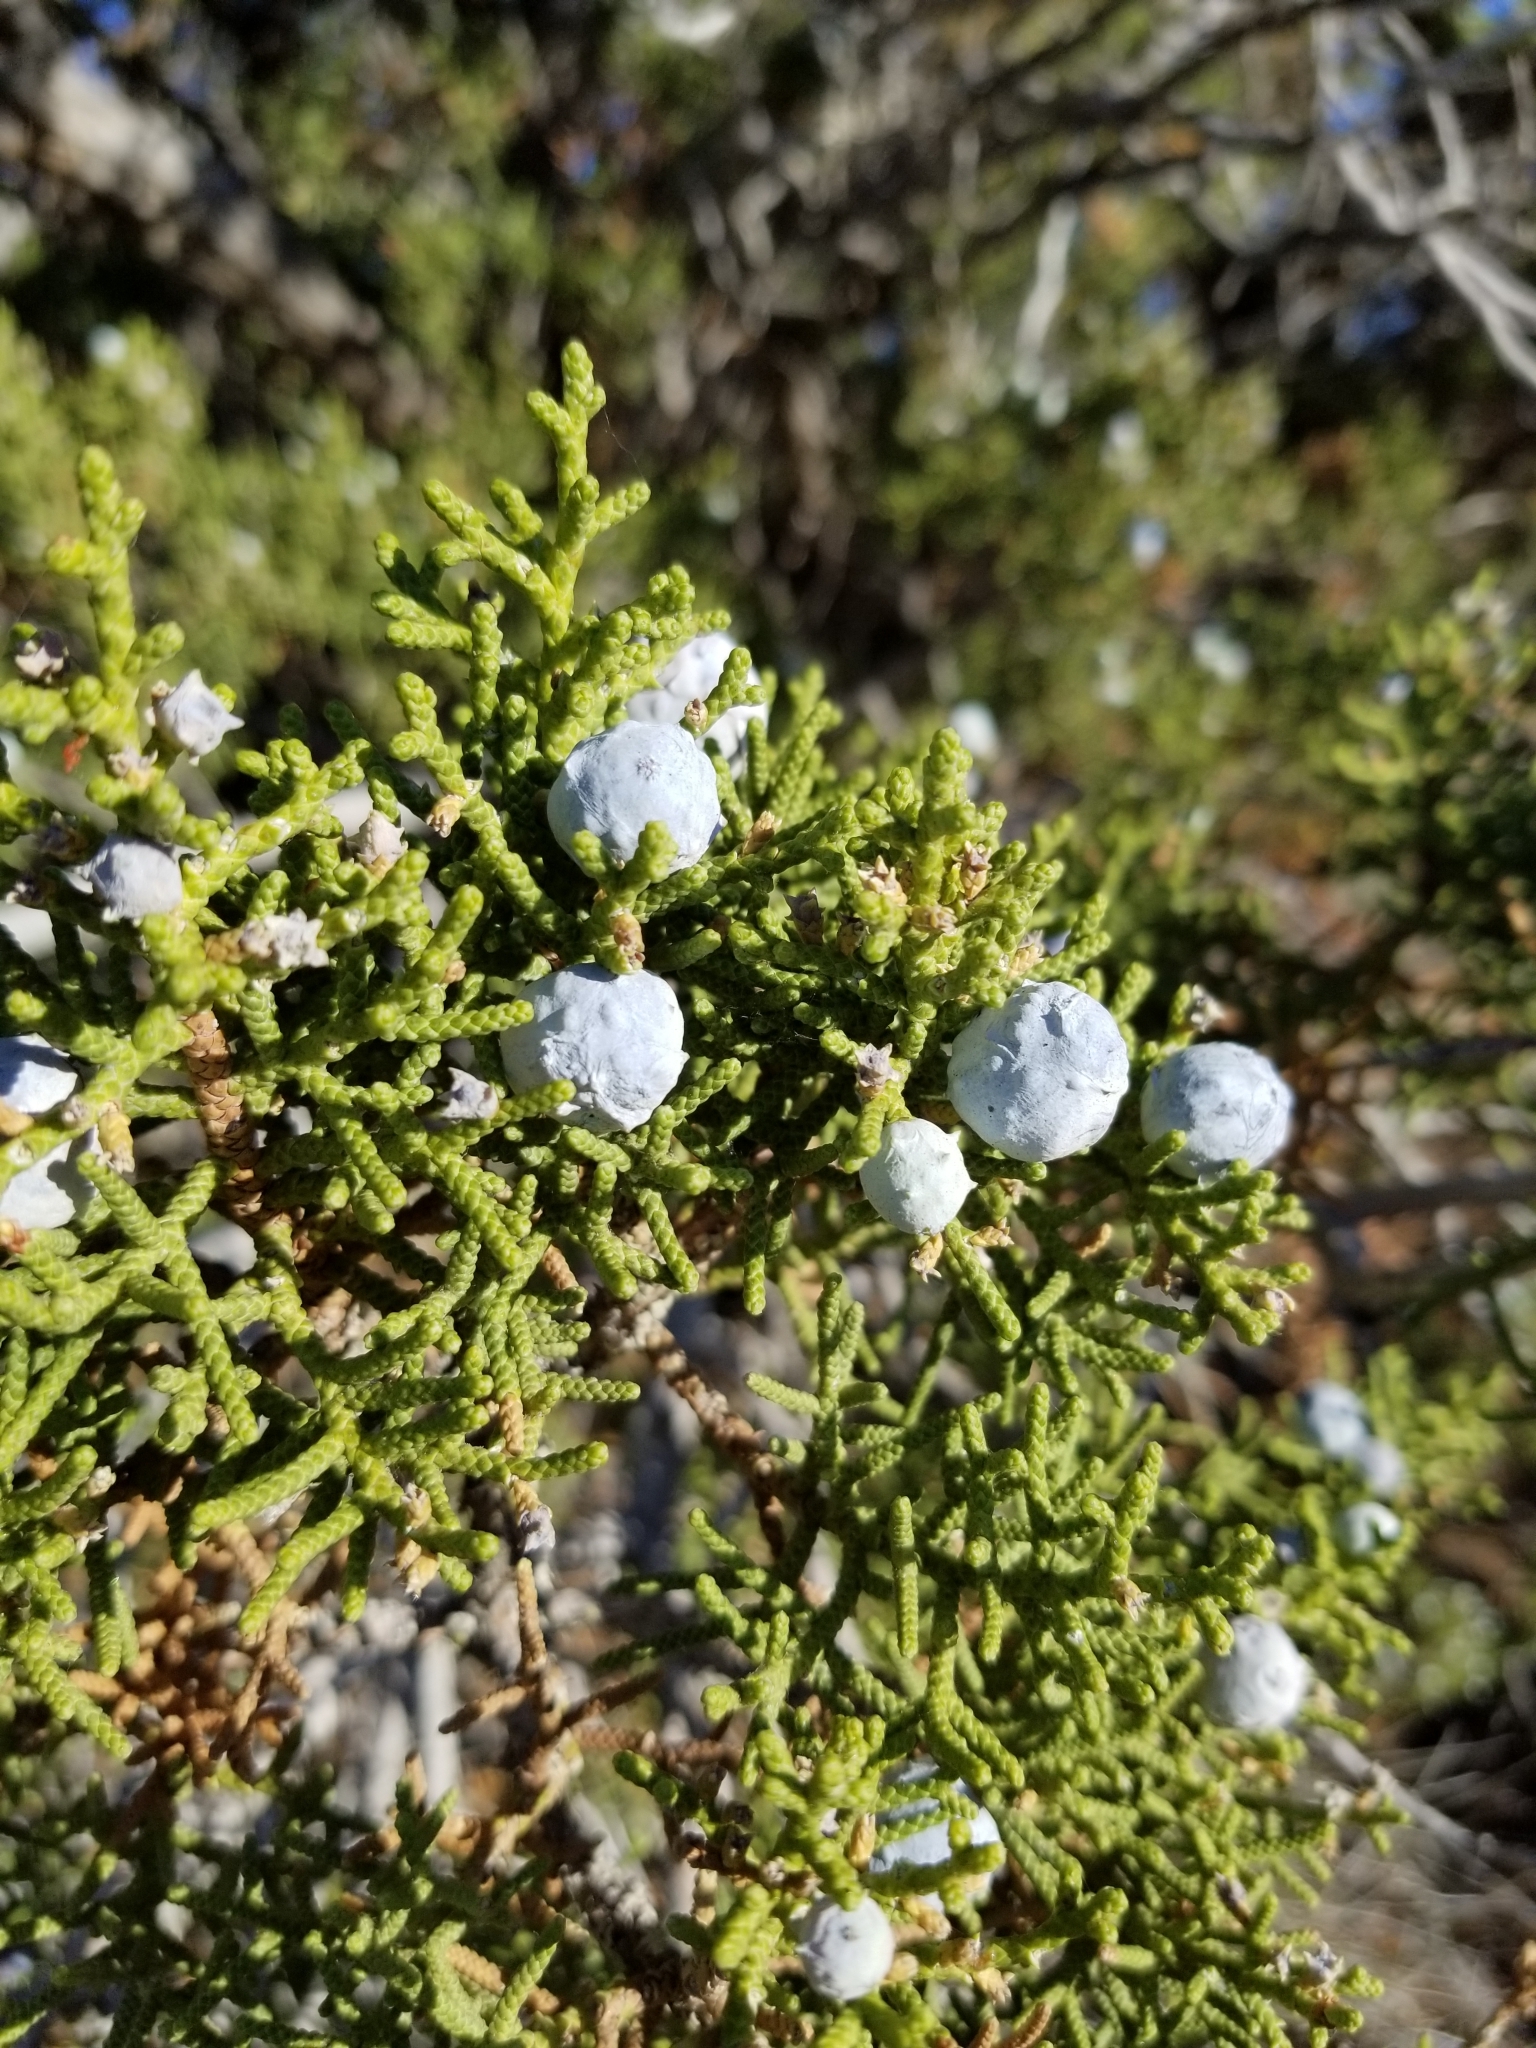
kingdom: Plantae
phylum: Tracheophyta
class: Pinopsida
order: Pinales
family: Cupressaceae
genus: Juniperus
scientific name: Juniperus californica
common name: California juniper
